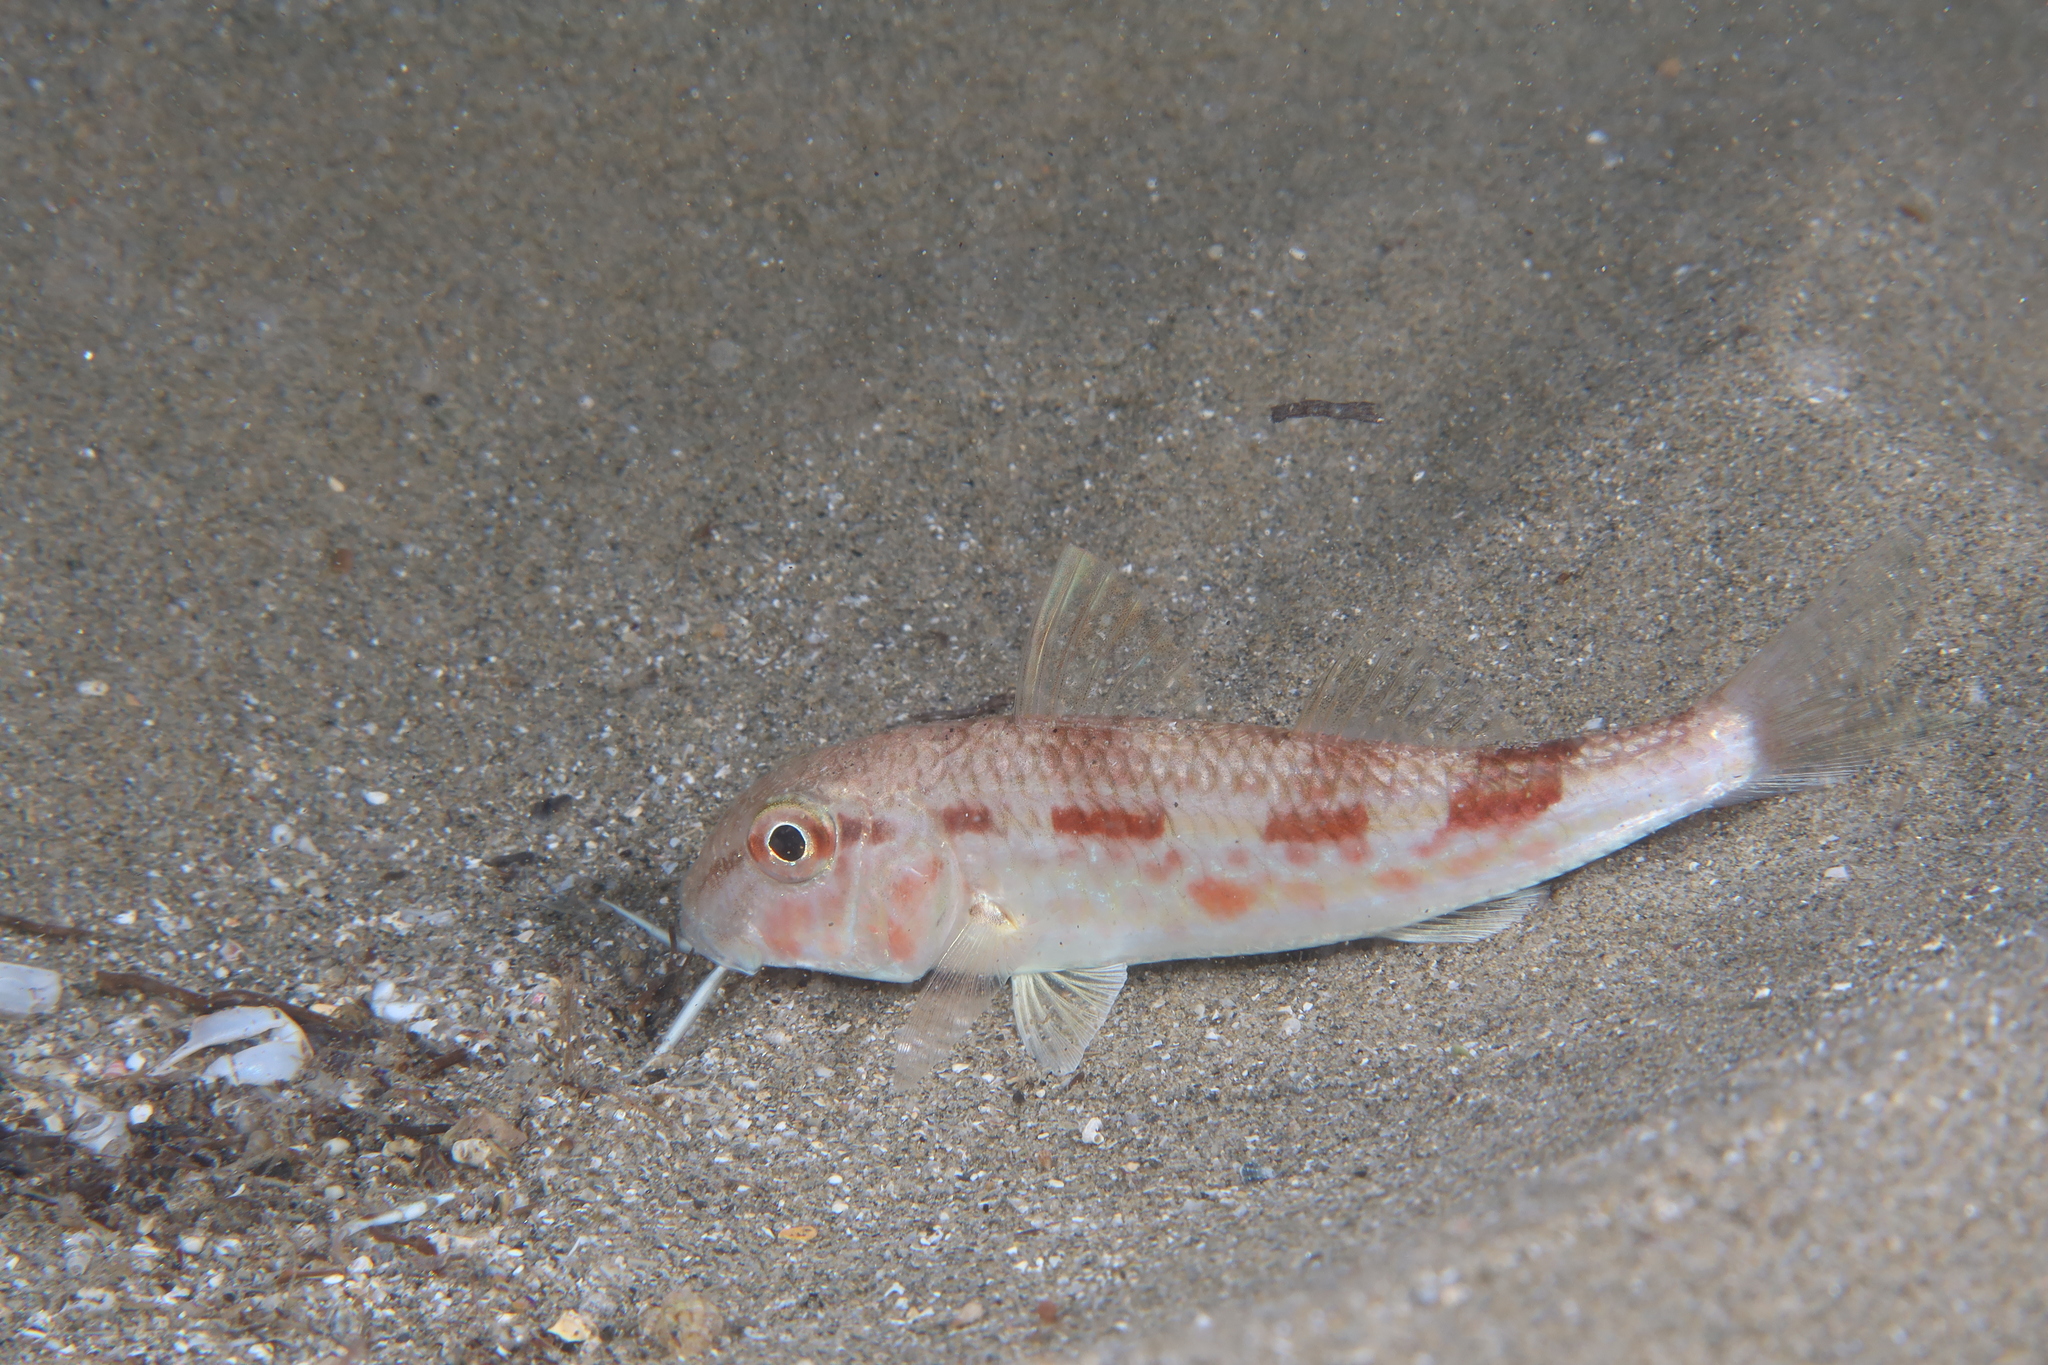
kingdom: Animalia
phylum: Chordata
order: Perciformes
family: Mullidae
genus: Mullus
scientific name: Mullus barbatus
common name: Blunt-snouted mullet
